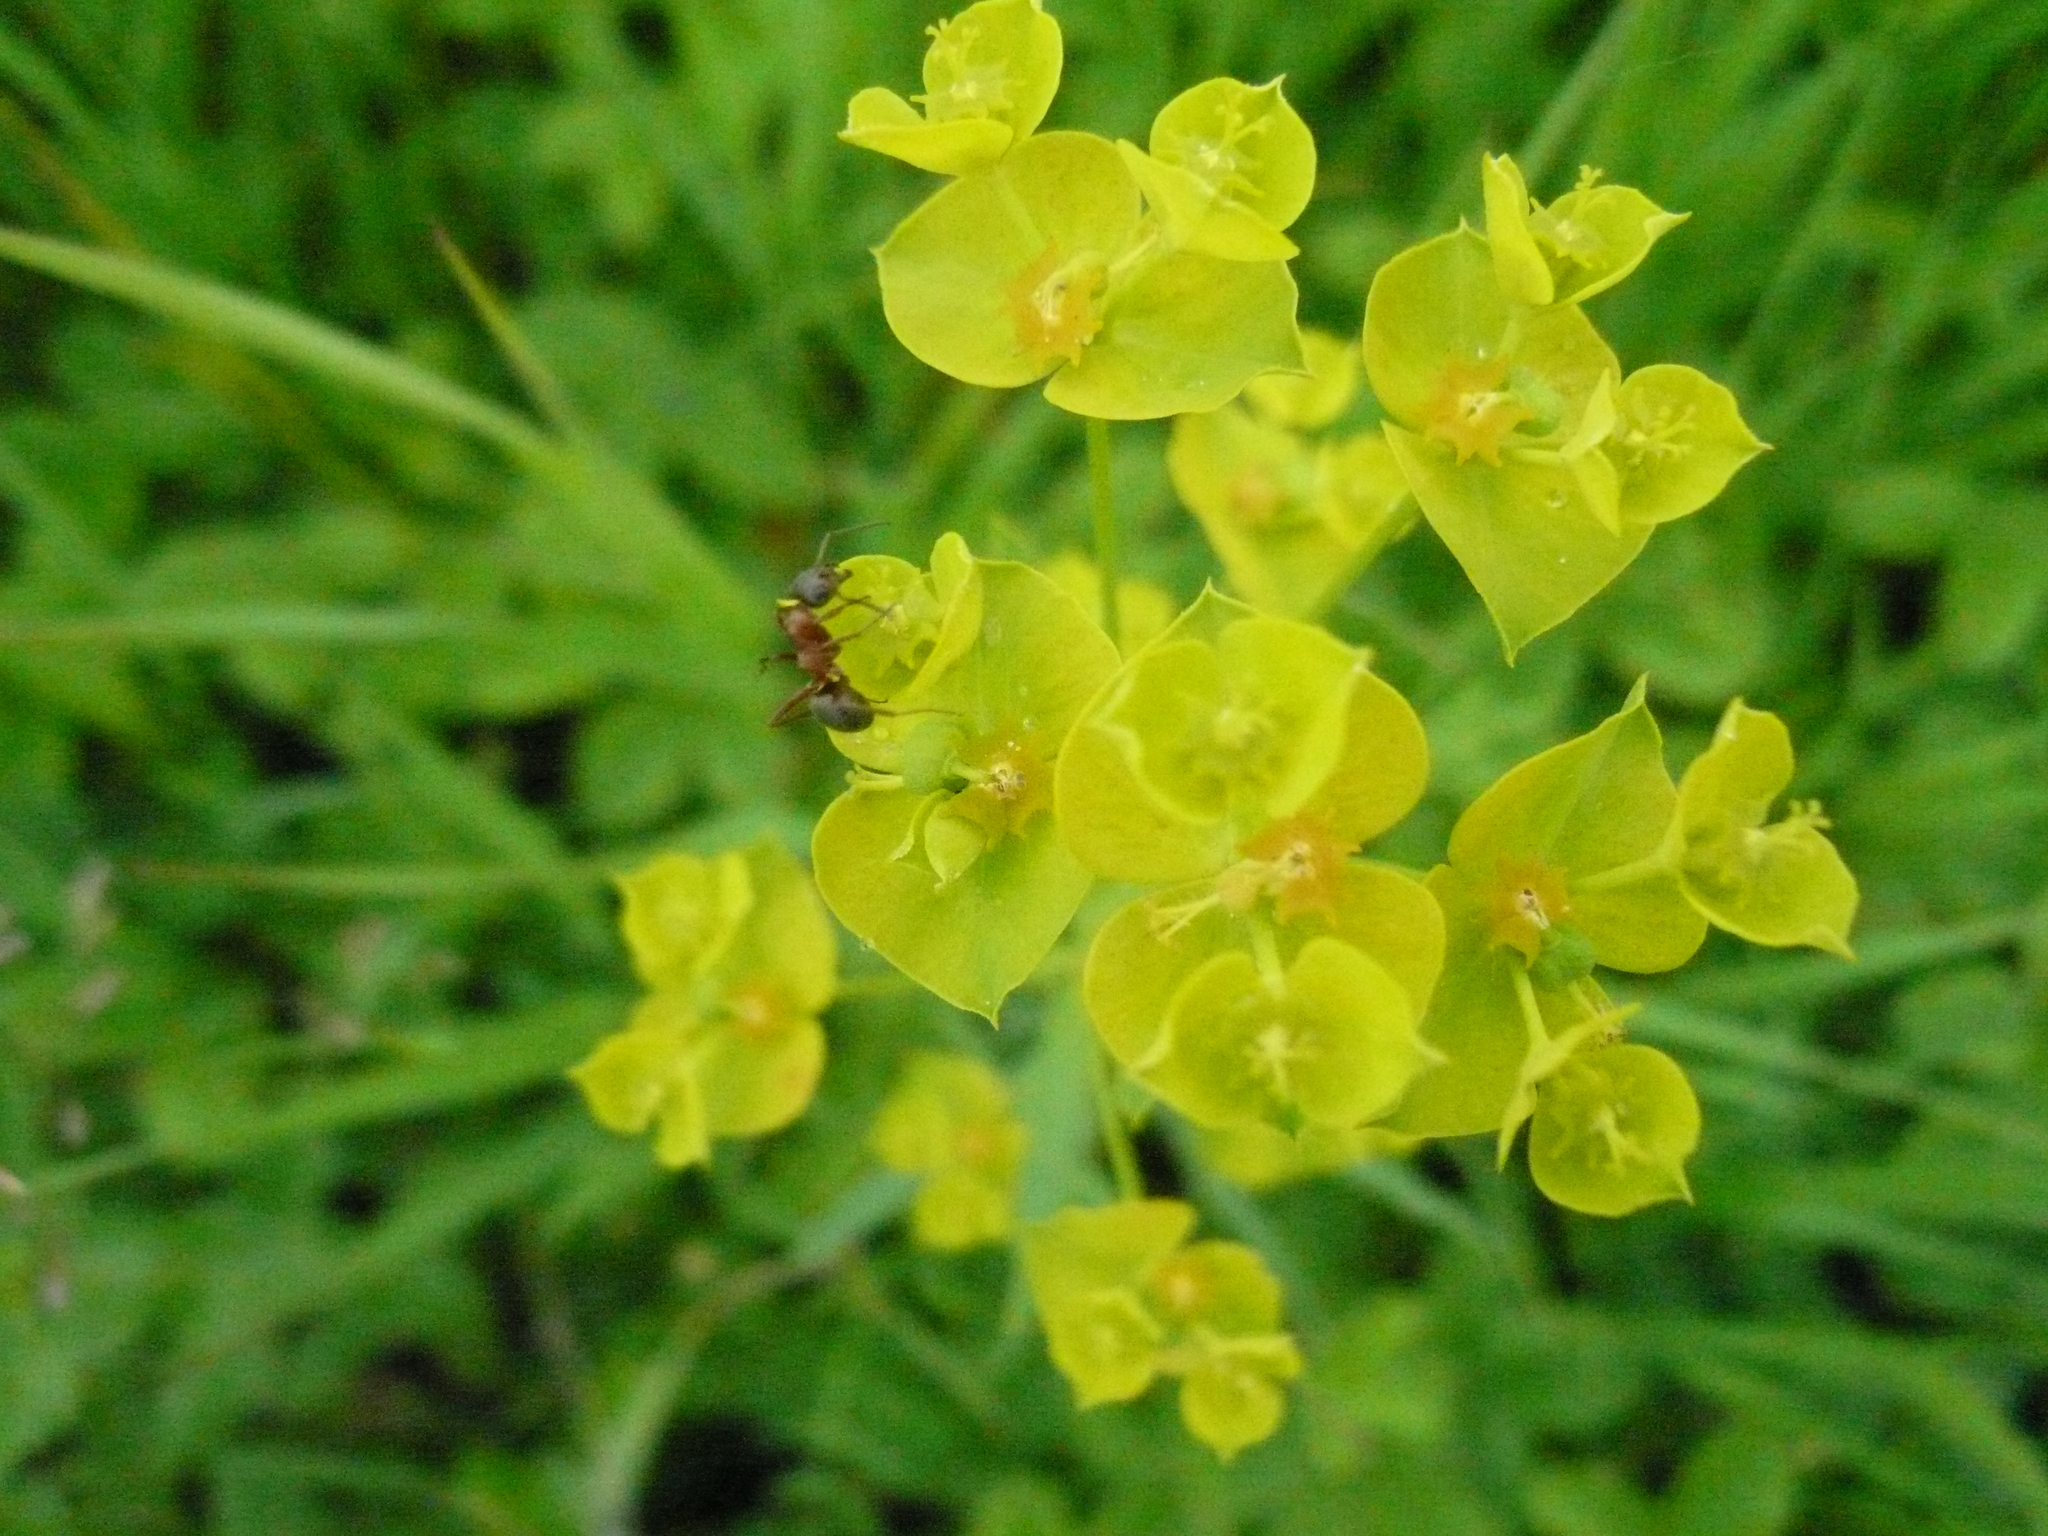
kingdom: Plantae
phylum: Tracheophyta
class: Magnoliopsida
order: Malpighiales
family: Euphorbiaceae
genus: Euphorbia
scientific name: Euphorbia virgata
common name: Leafy spurge
